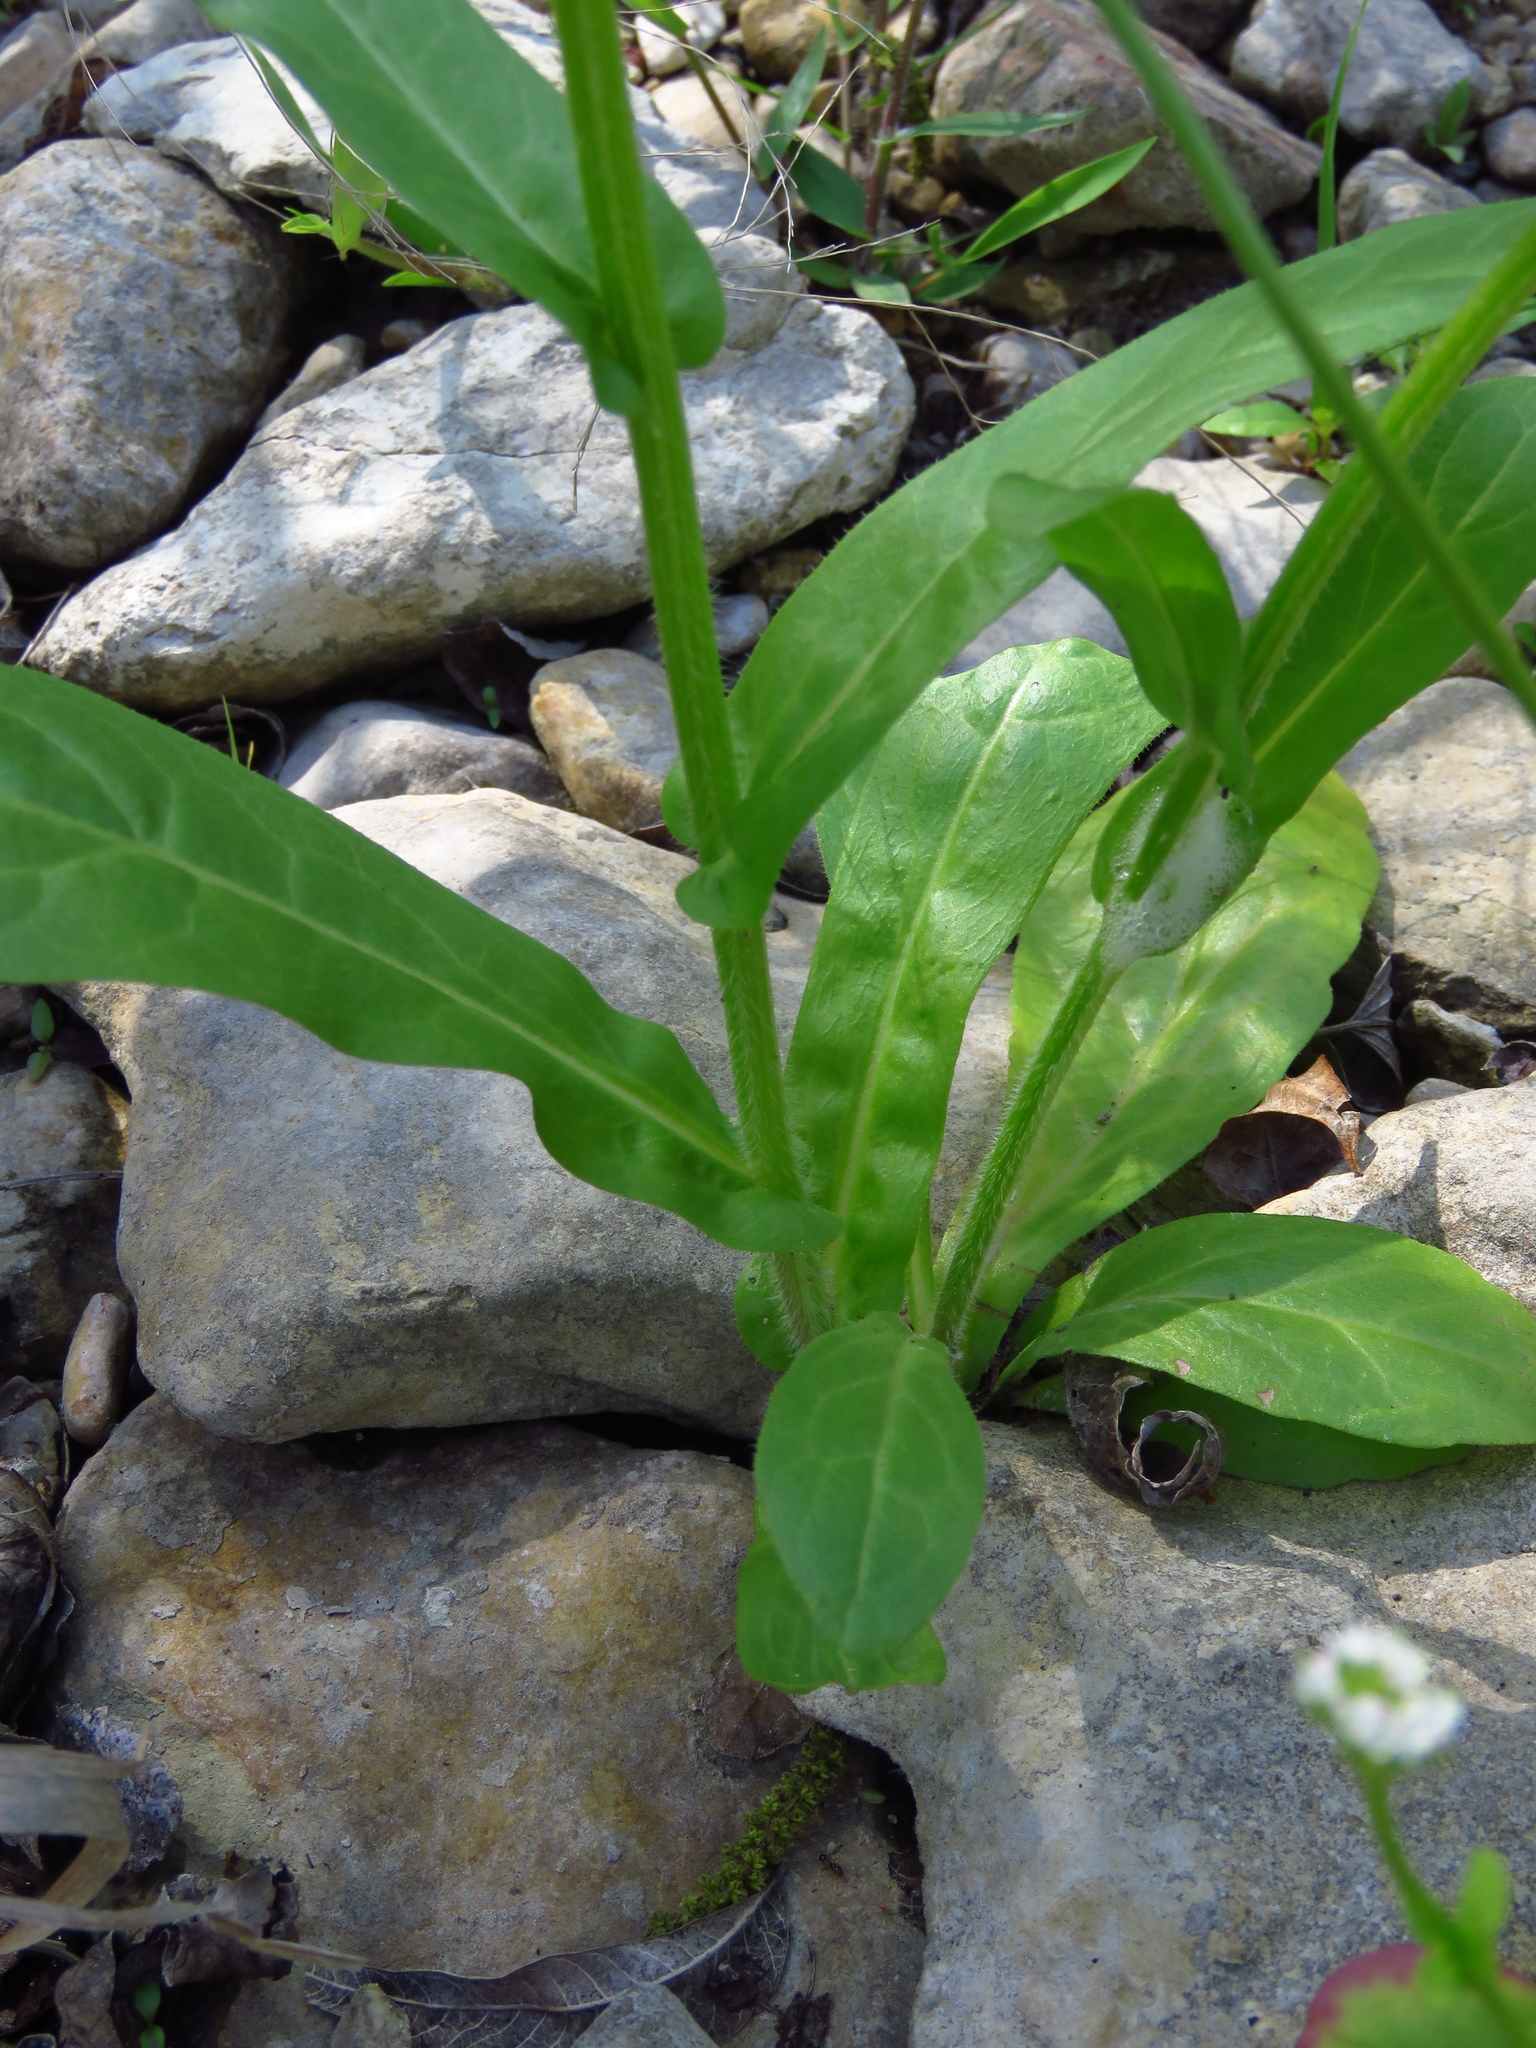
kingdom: Plantae
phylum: Tracheophyta
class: Magnoliopsida
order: Asterales
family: Asteraceae
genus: Erigeron
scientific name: Erigeron philadelphicus
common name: Robin's-plantain
